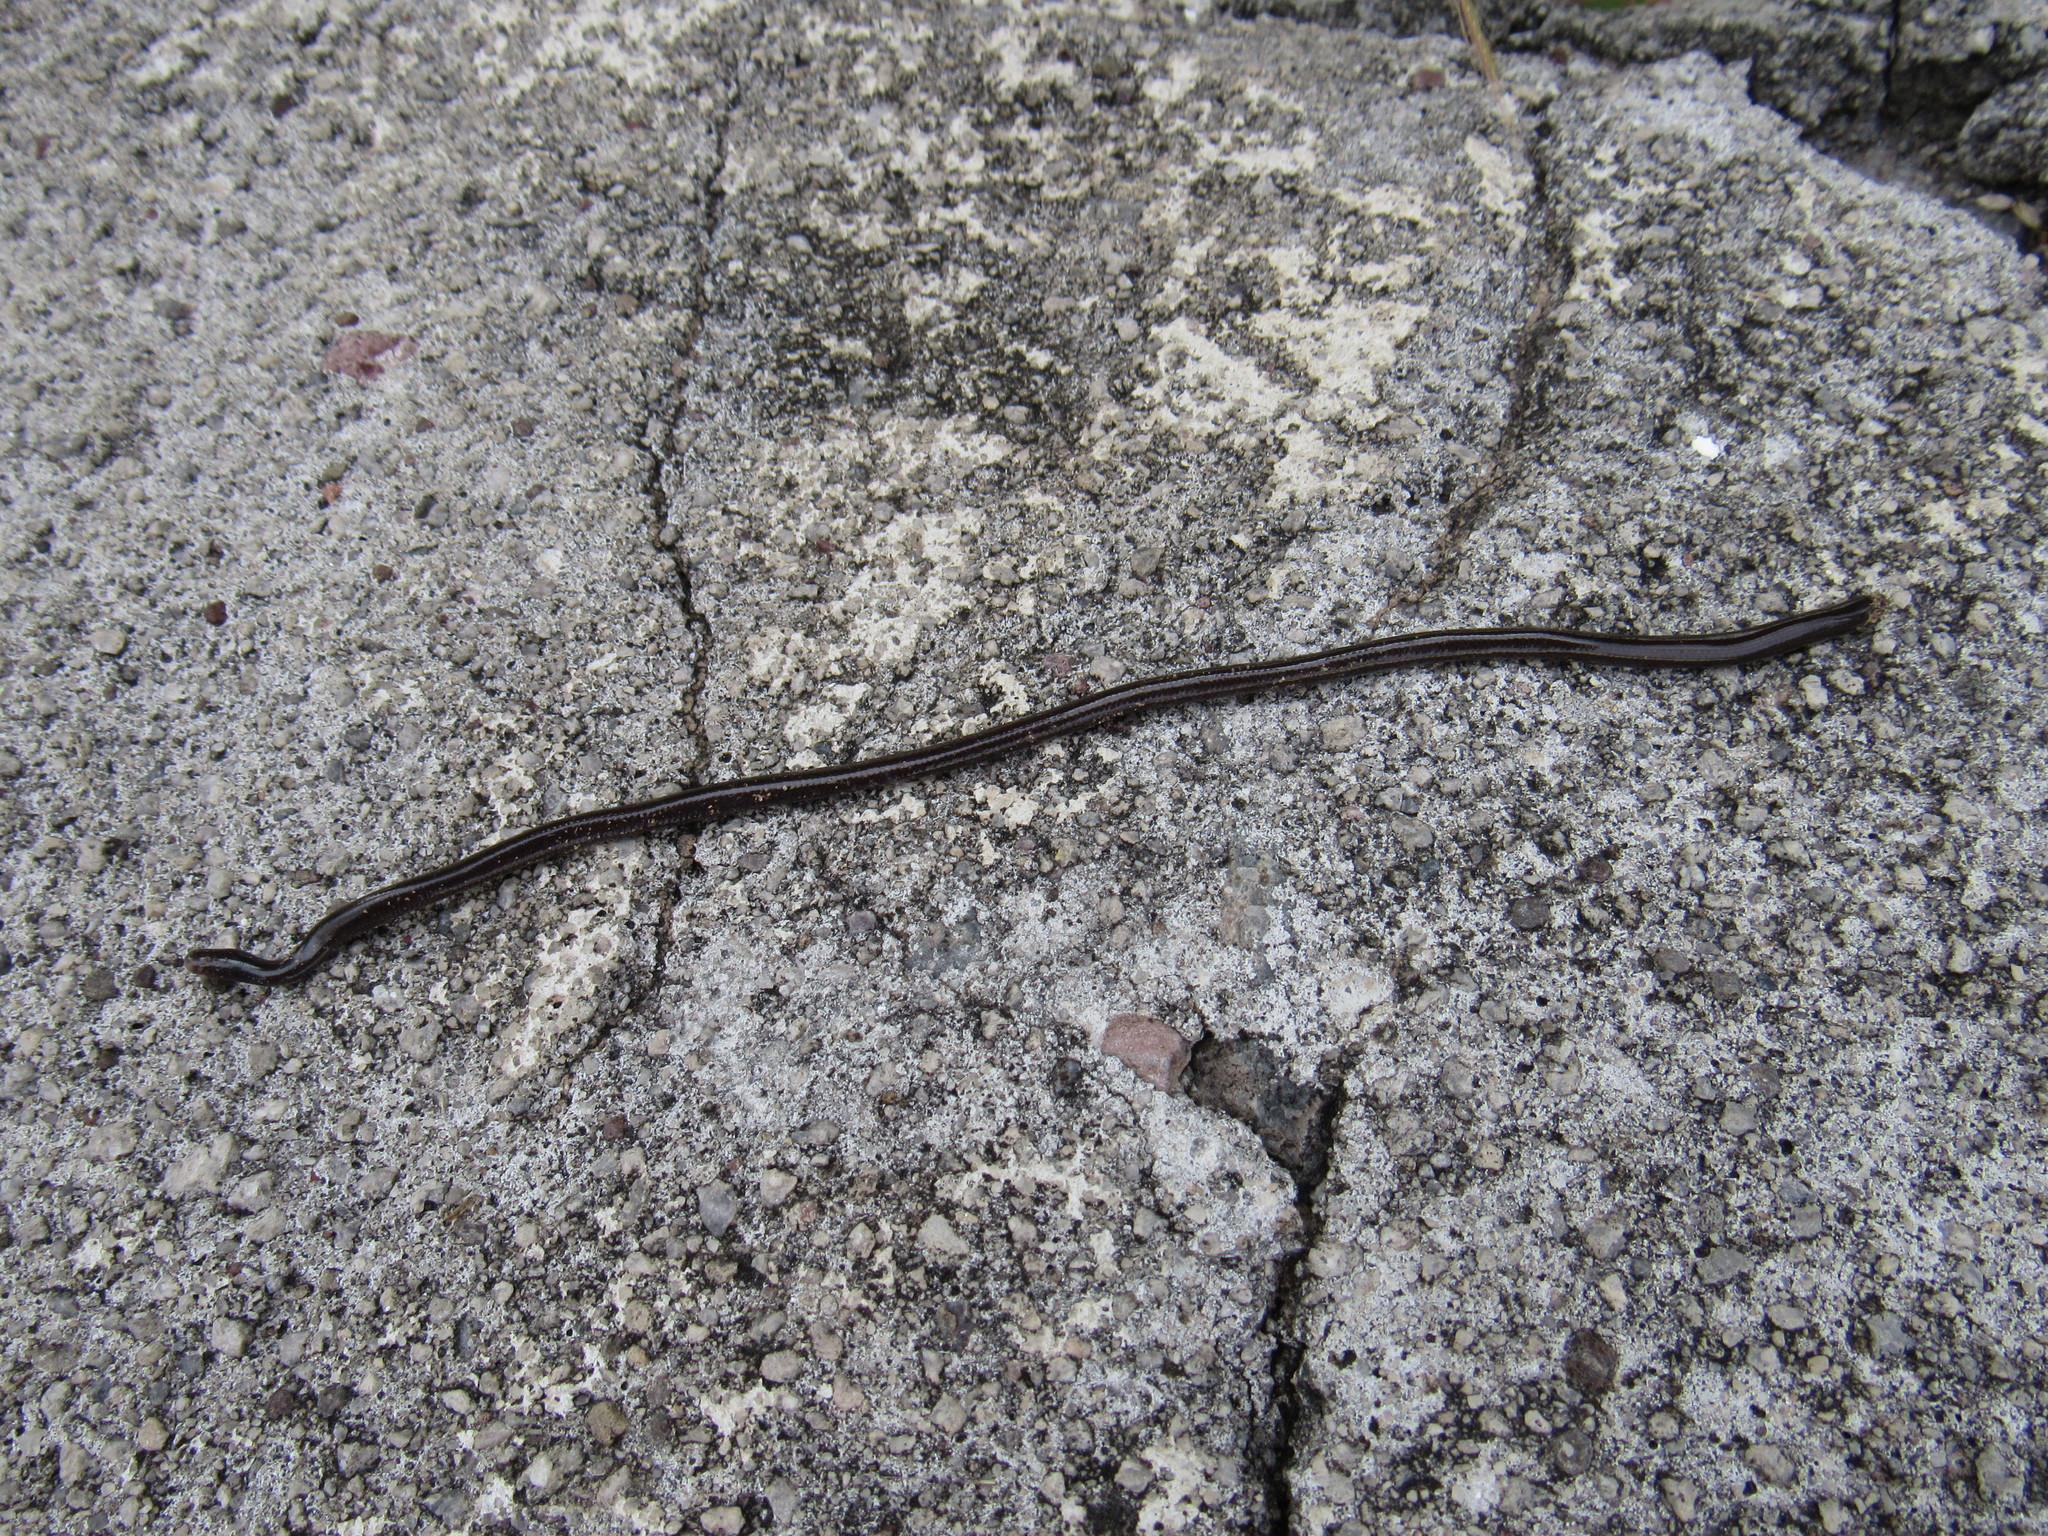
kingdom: Animalia
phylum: Chordata
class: Squamata
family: Typhlopidae
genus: Indotyphlops
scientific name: Indotyphlops braminus
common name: Brahminy blindsnake
